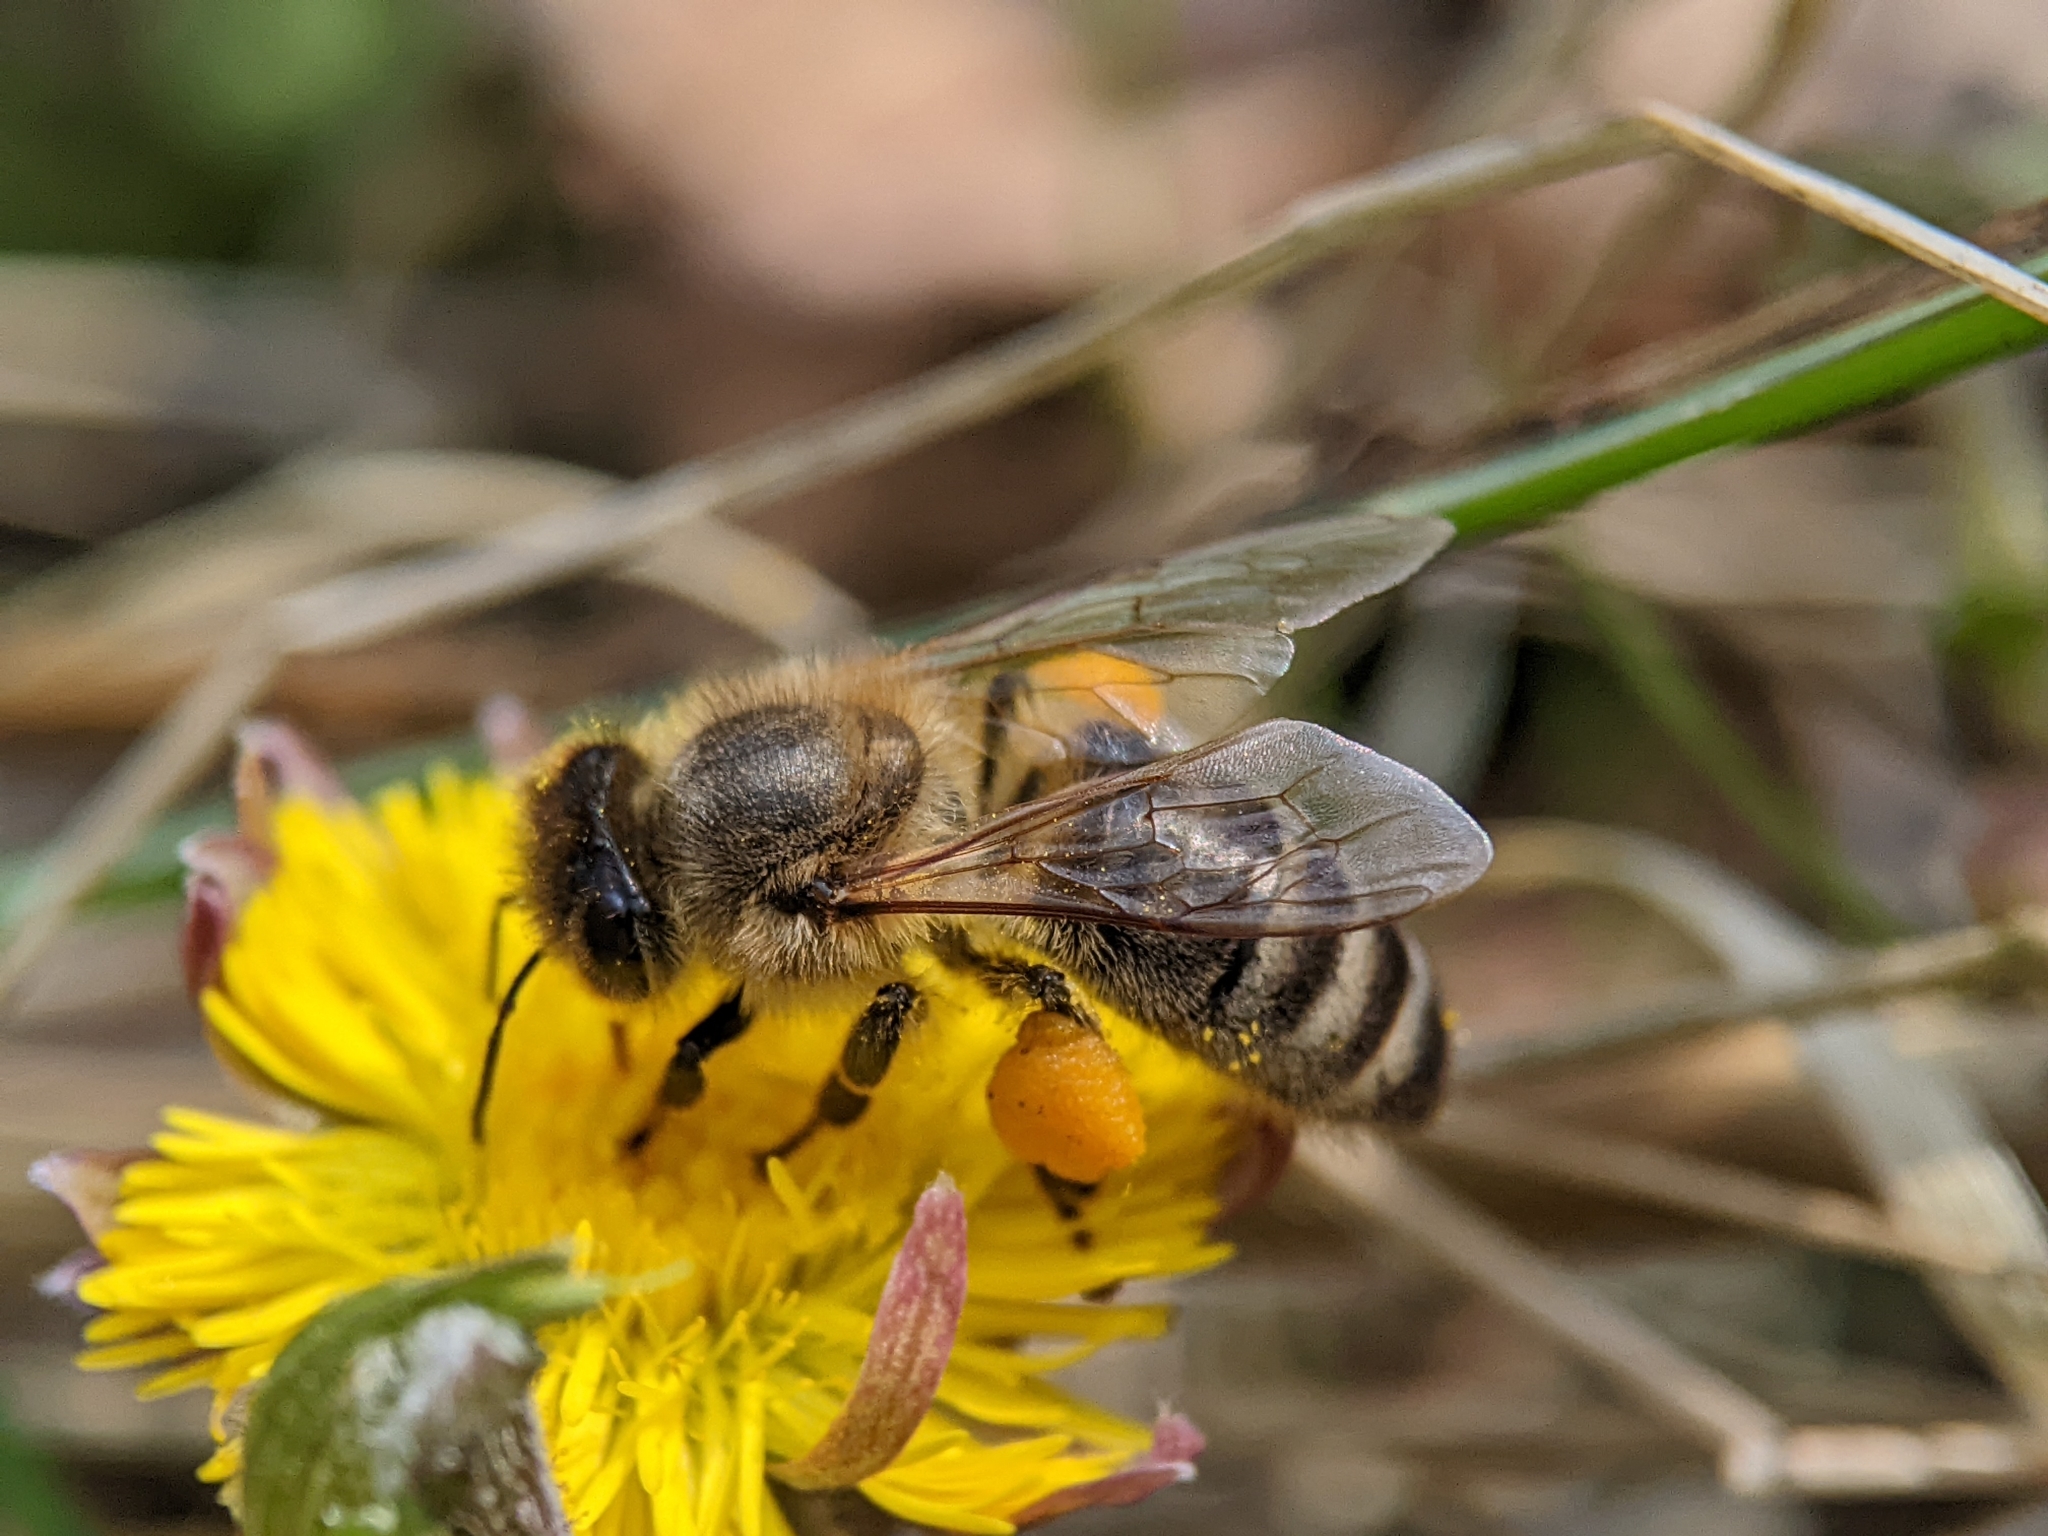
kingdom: Animalia
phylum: Arthropoda
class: Insecta
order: Hymenoptera
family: Apidae
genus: Apis
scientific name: Apis mellifera
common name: Honey bee
